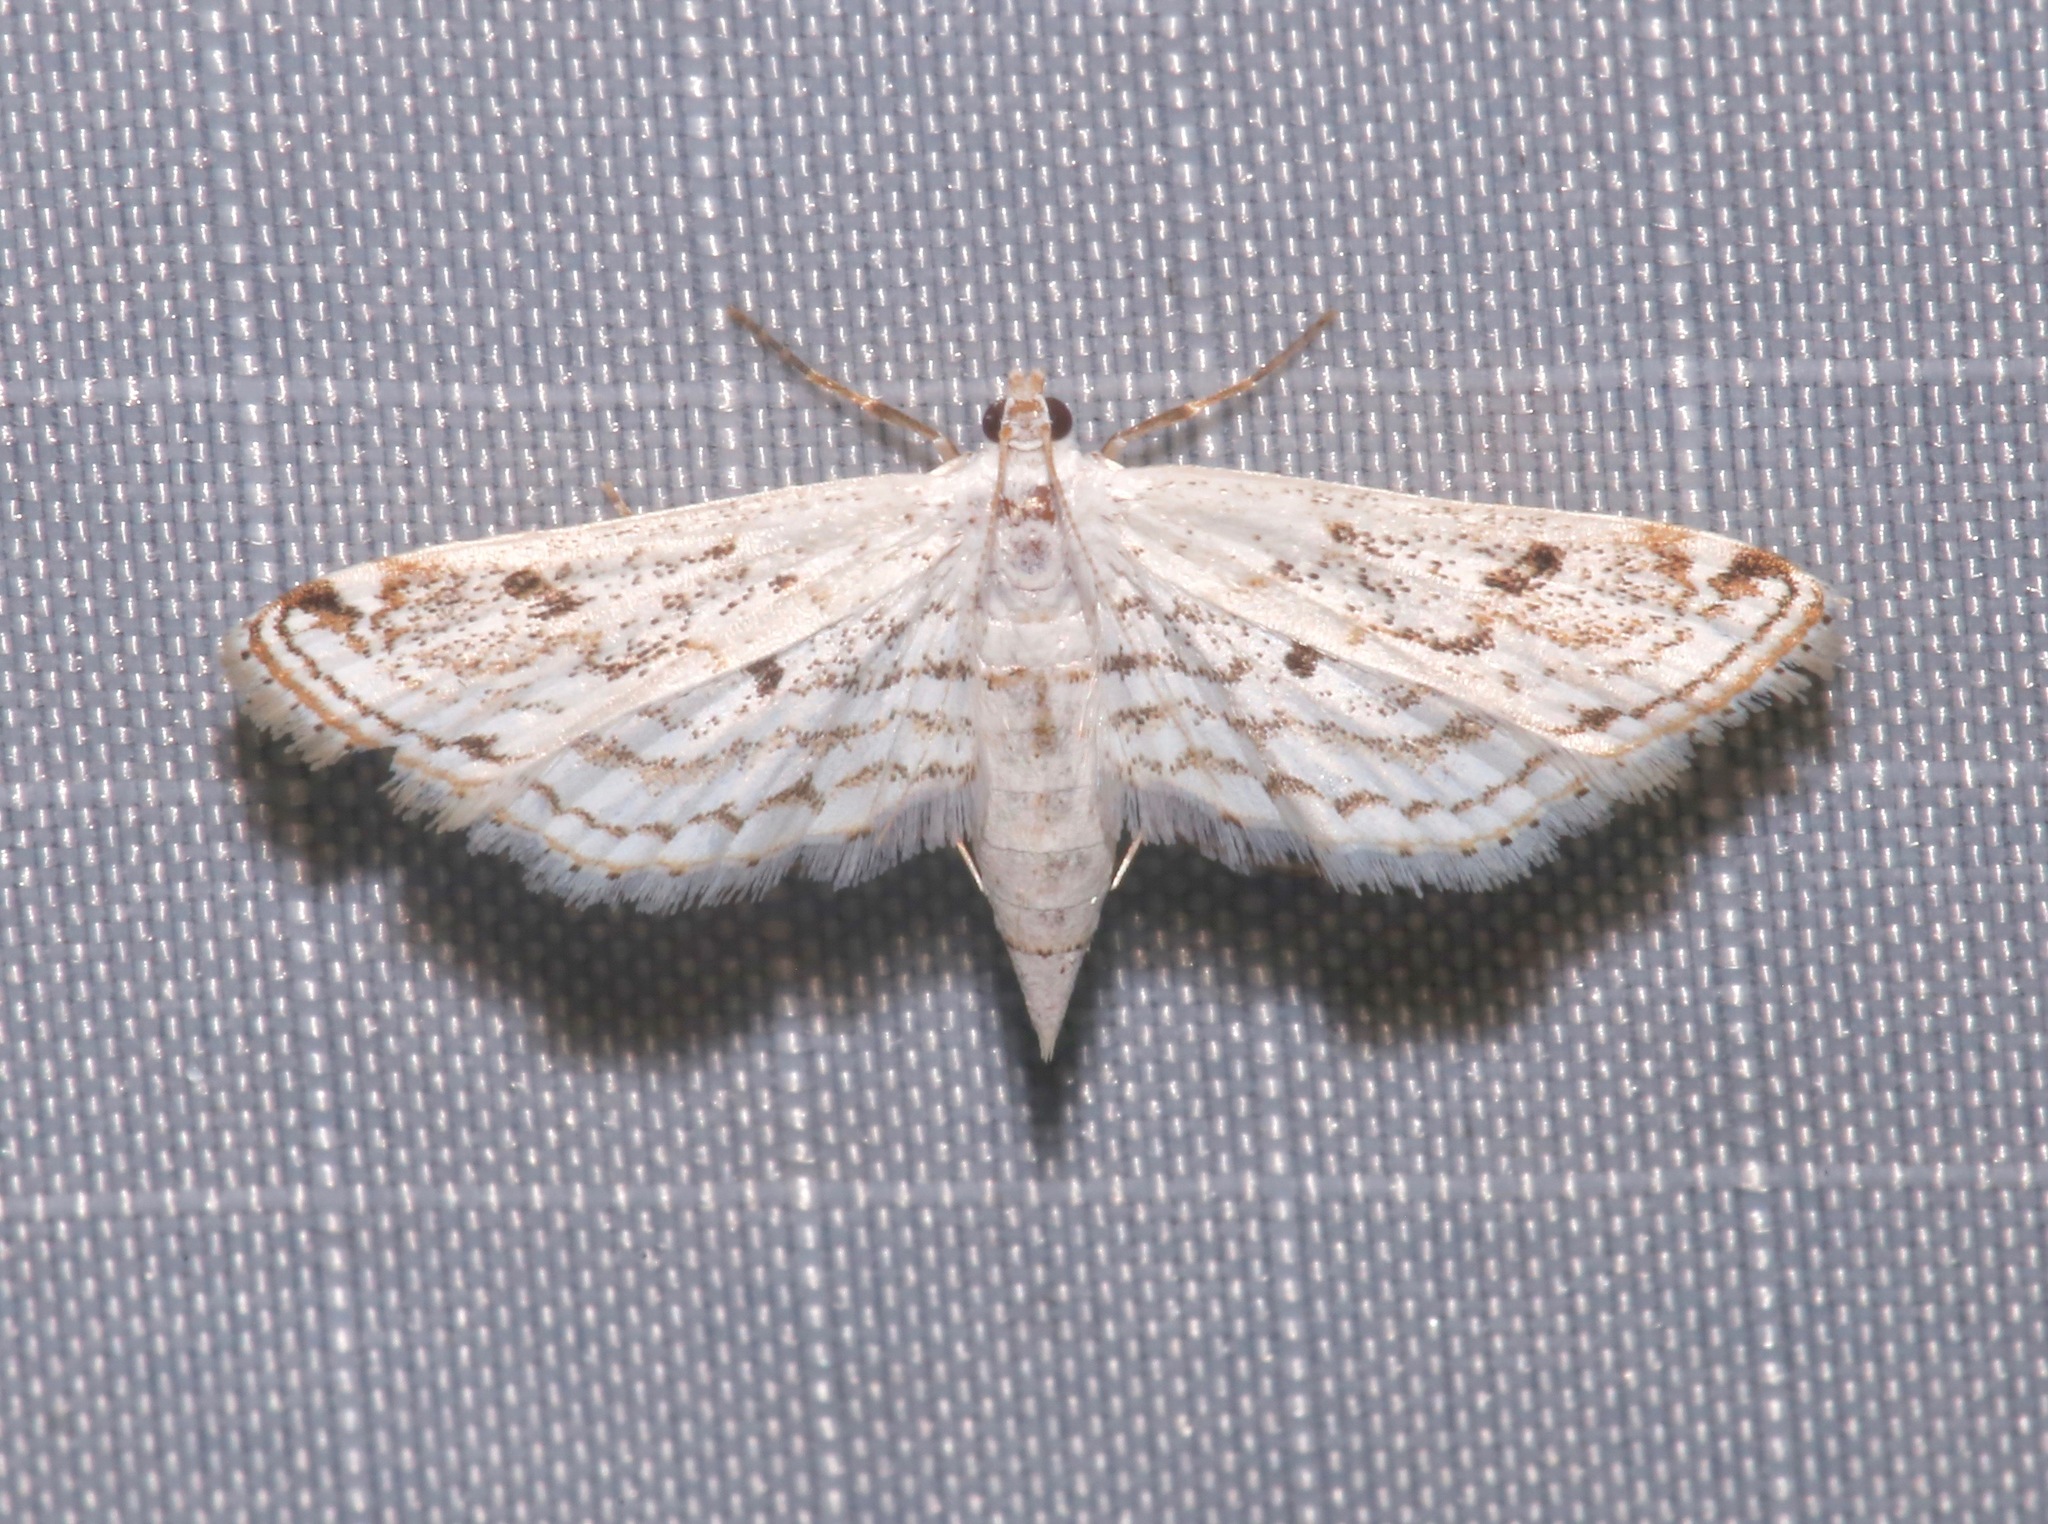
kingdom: Animalia
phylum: Arthropoda
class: Insecta
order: Lepidoptera
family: Crambidae
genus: Parapoynx
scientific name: Parapoynx allionealis
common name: Bladderwort casemaker
